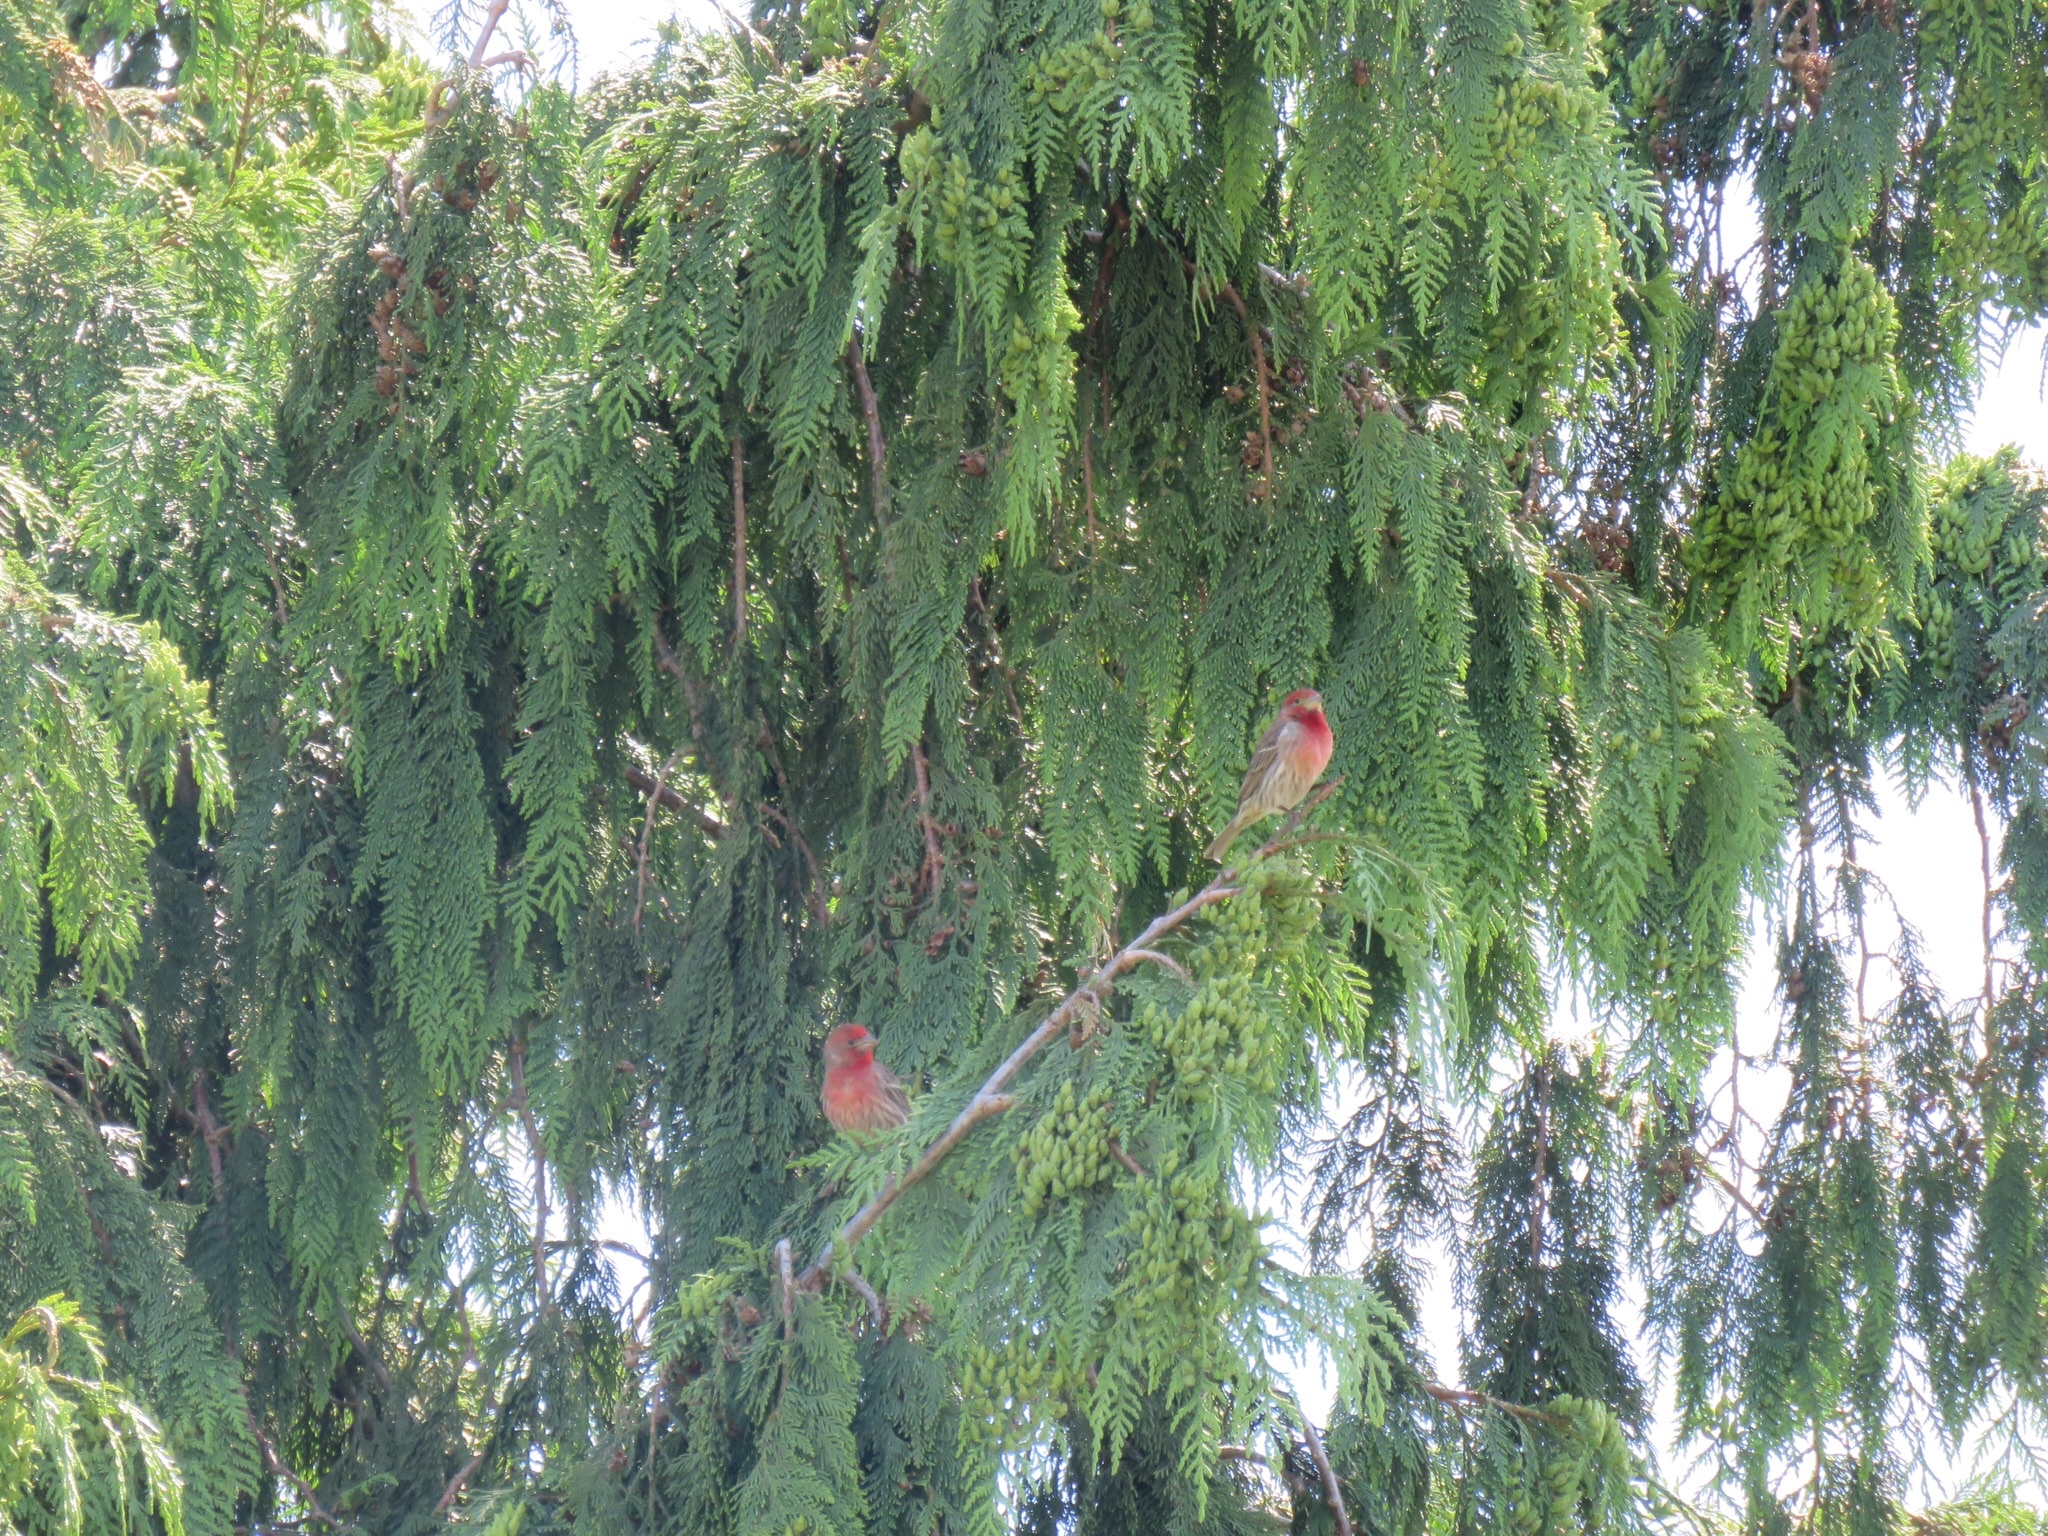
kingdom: Animalia
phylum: Chordata
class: Aves
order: Passeriformes
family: Fringillidae
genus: Haemorhous
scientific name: Haemorhous mexicanus
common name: House finch
